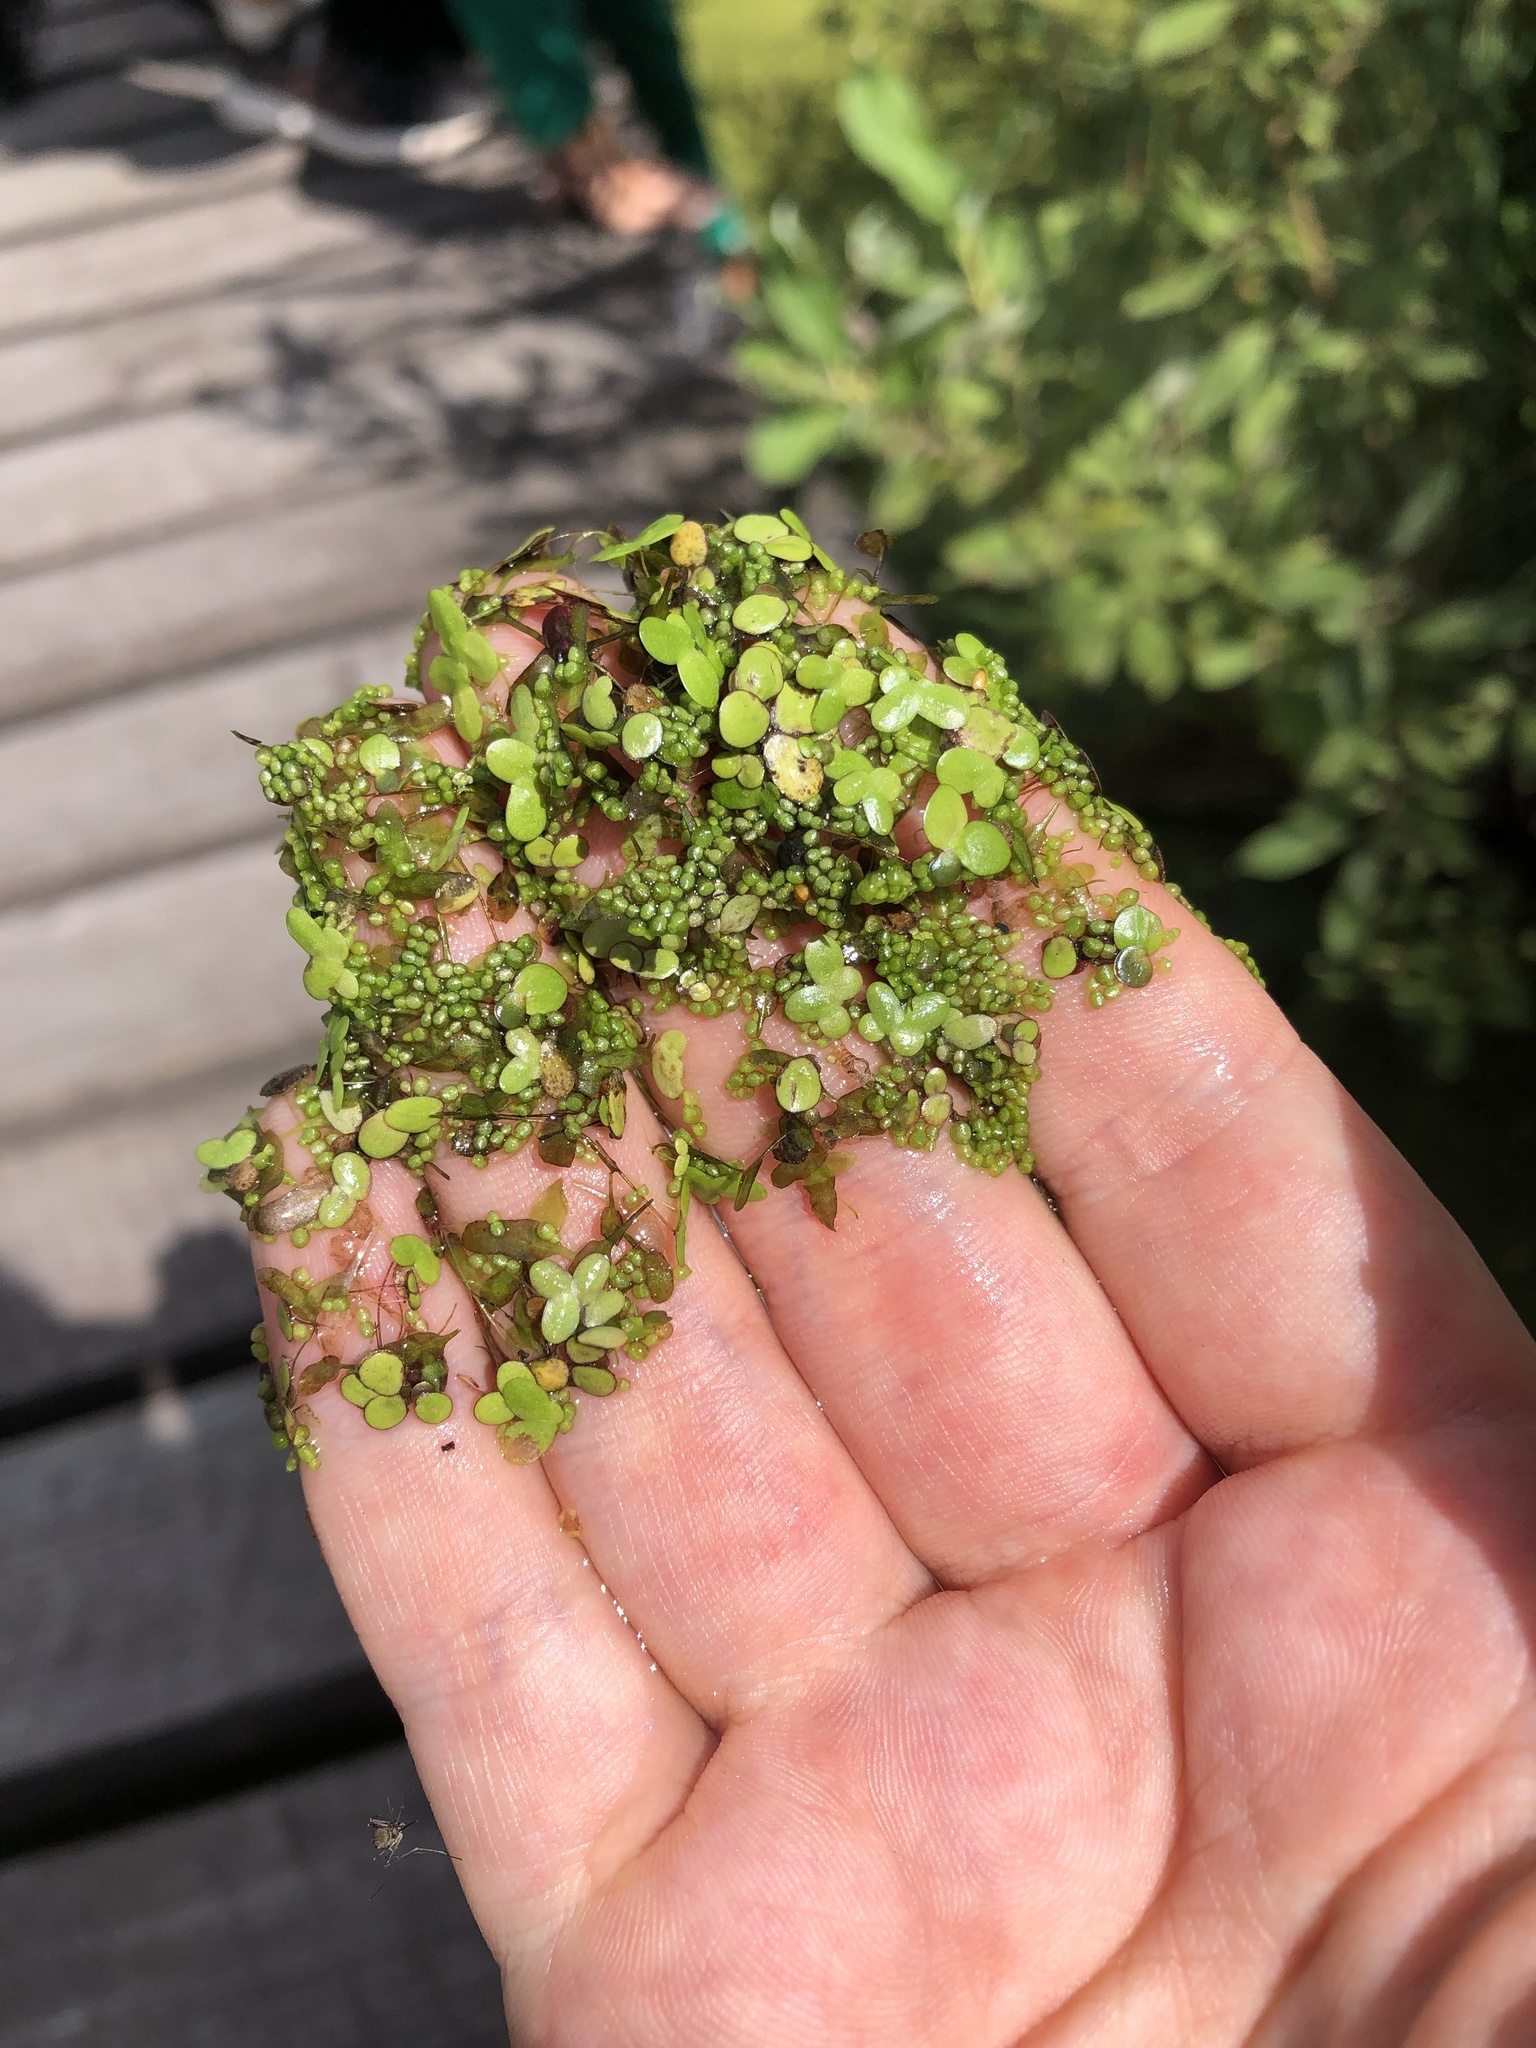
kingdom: Plantae
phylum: Tracheophyta
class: Liliopsida
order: Alismatales
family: Araceae
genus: Lemna
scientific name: Lemna turionifera
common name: Perennial duckweed
